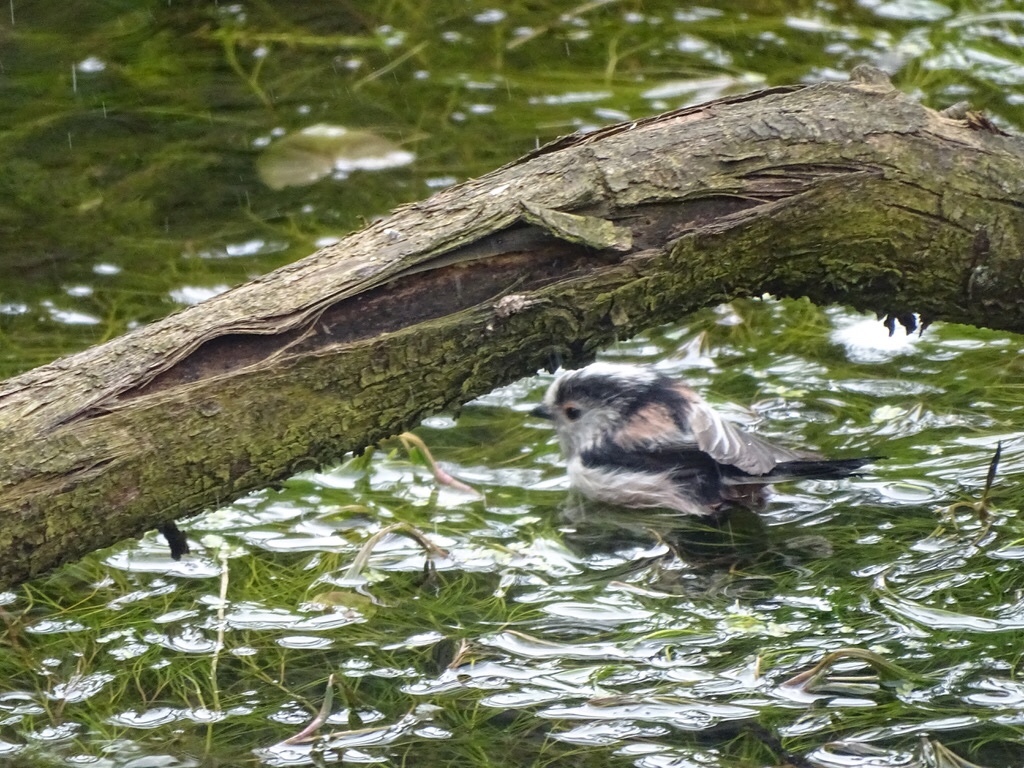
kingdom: Animalia
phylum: Chordata
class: Aves
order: Passeriformes
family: Aegithalidae
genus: Aegithalos
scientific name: Aegithalos caudatus
